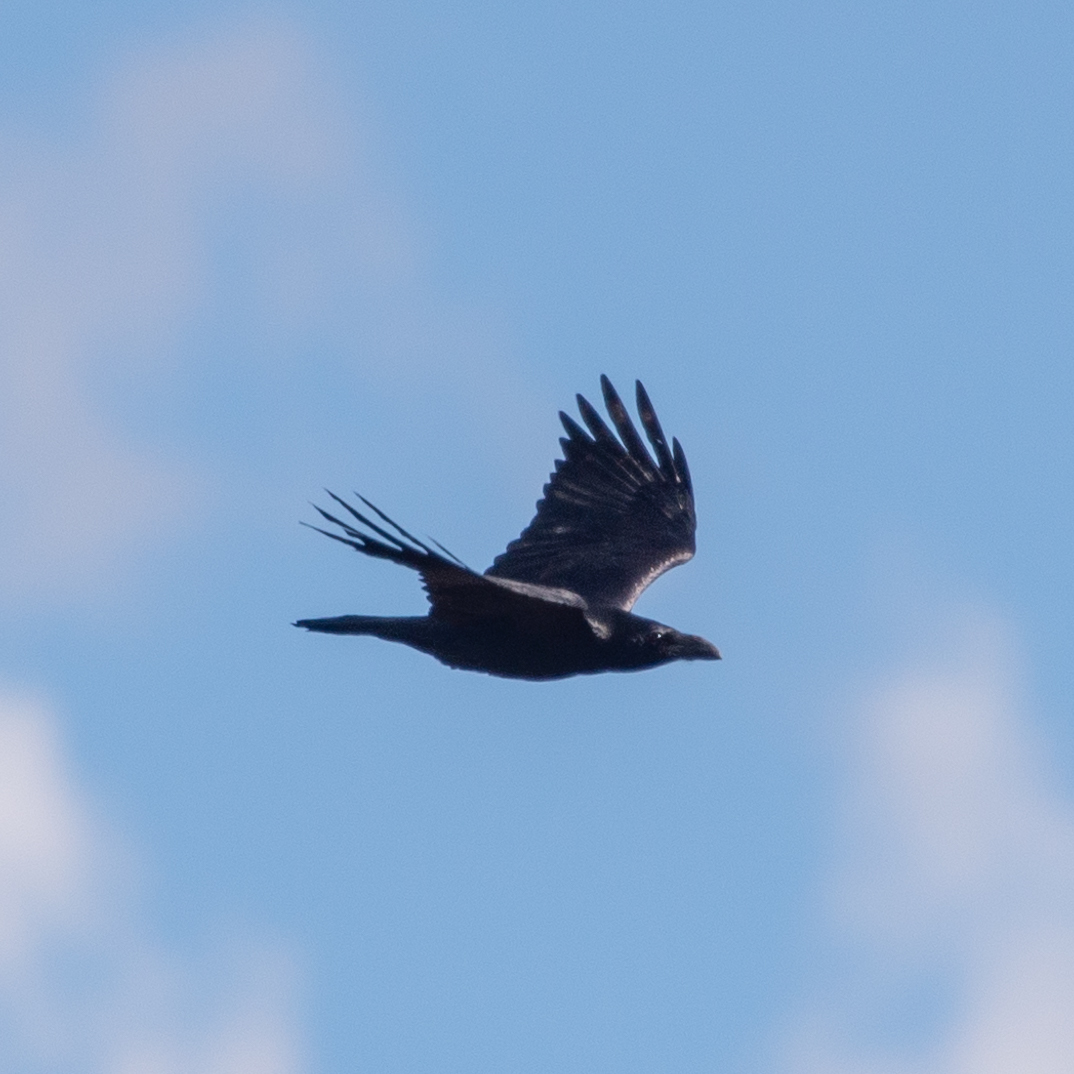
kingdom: Animalia
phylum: Chordata
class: Aves
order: Passeriformes
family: Corvidae
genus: Corvus
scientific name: Corvus corax
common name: Common raven
